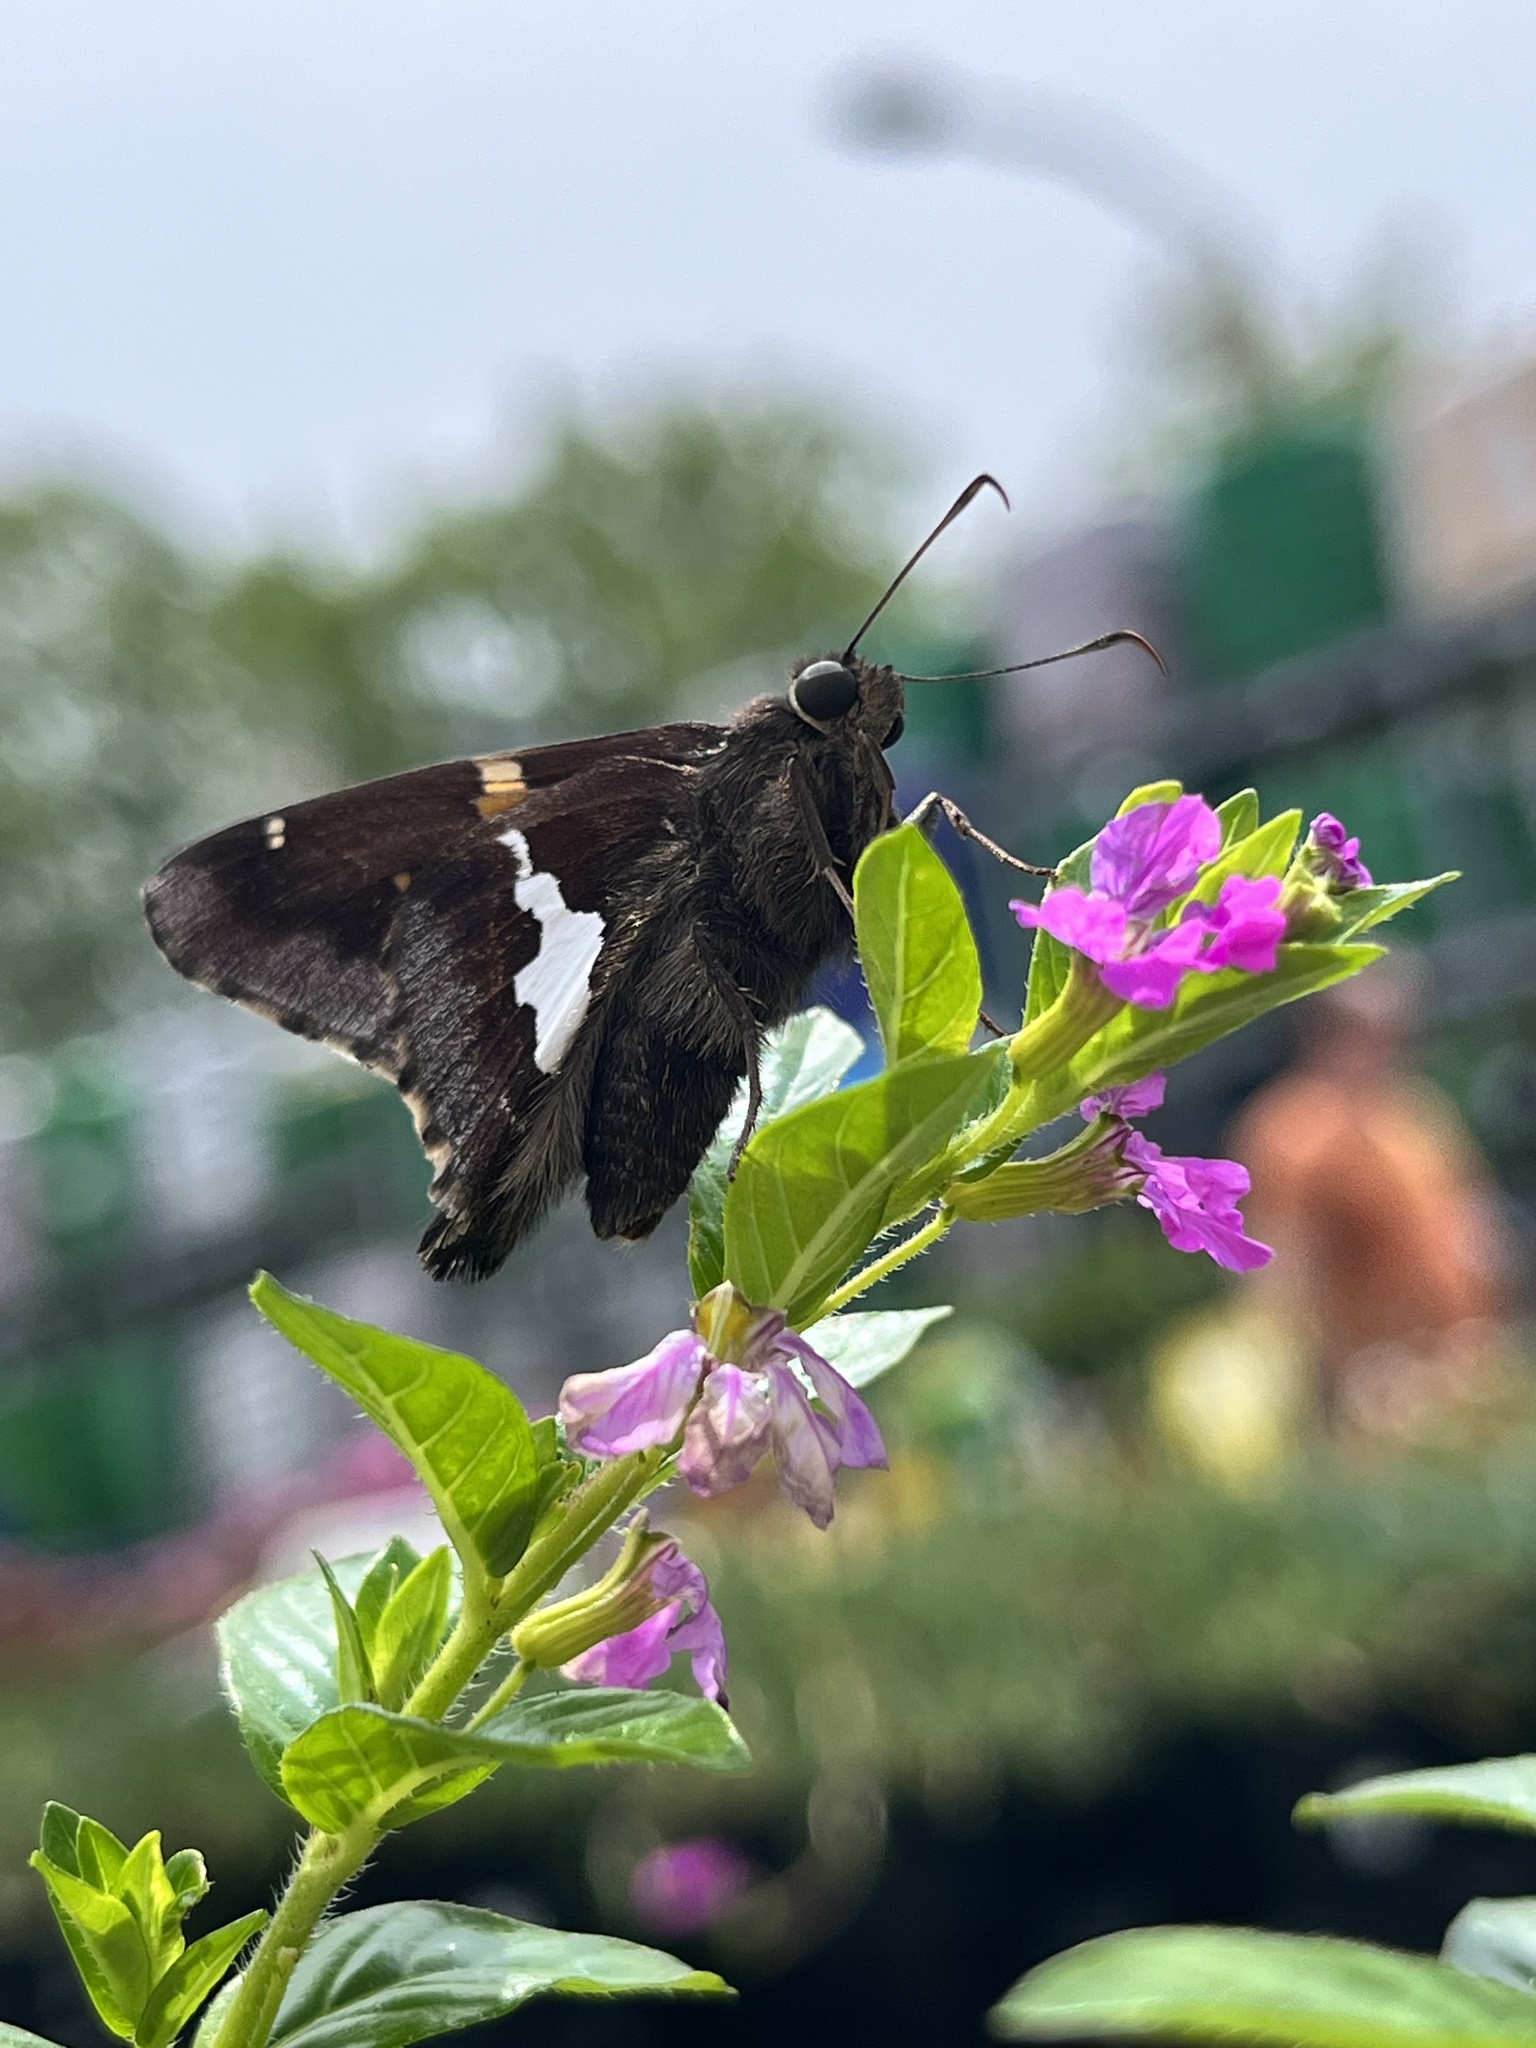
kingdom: Animalia
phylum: Arthropoda
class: Insecta
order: Lepidoptera
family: Hesperiidae
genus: Epargyreus
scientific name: Epargyreus clarus
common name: Silver-spotted skipper
